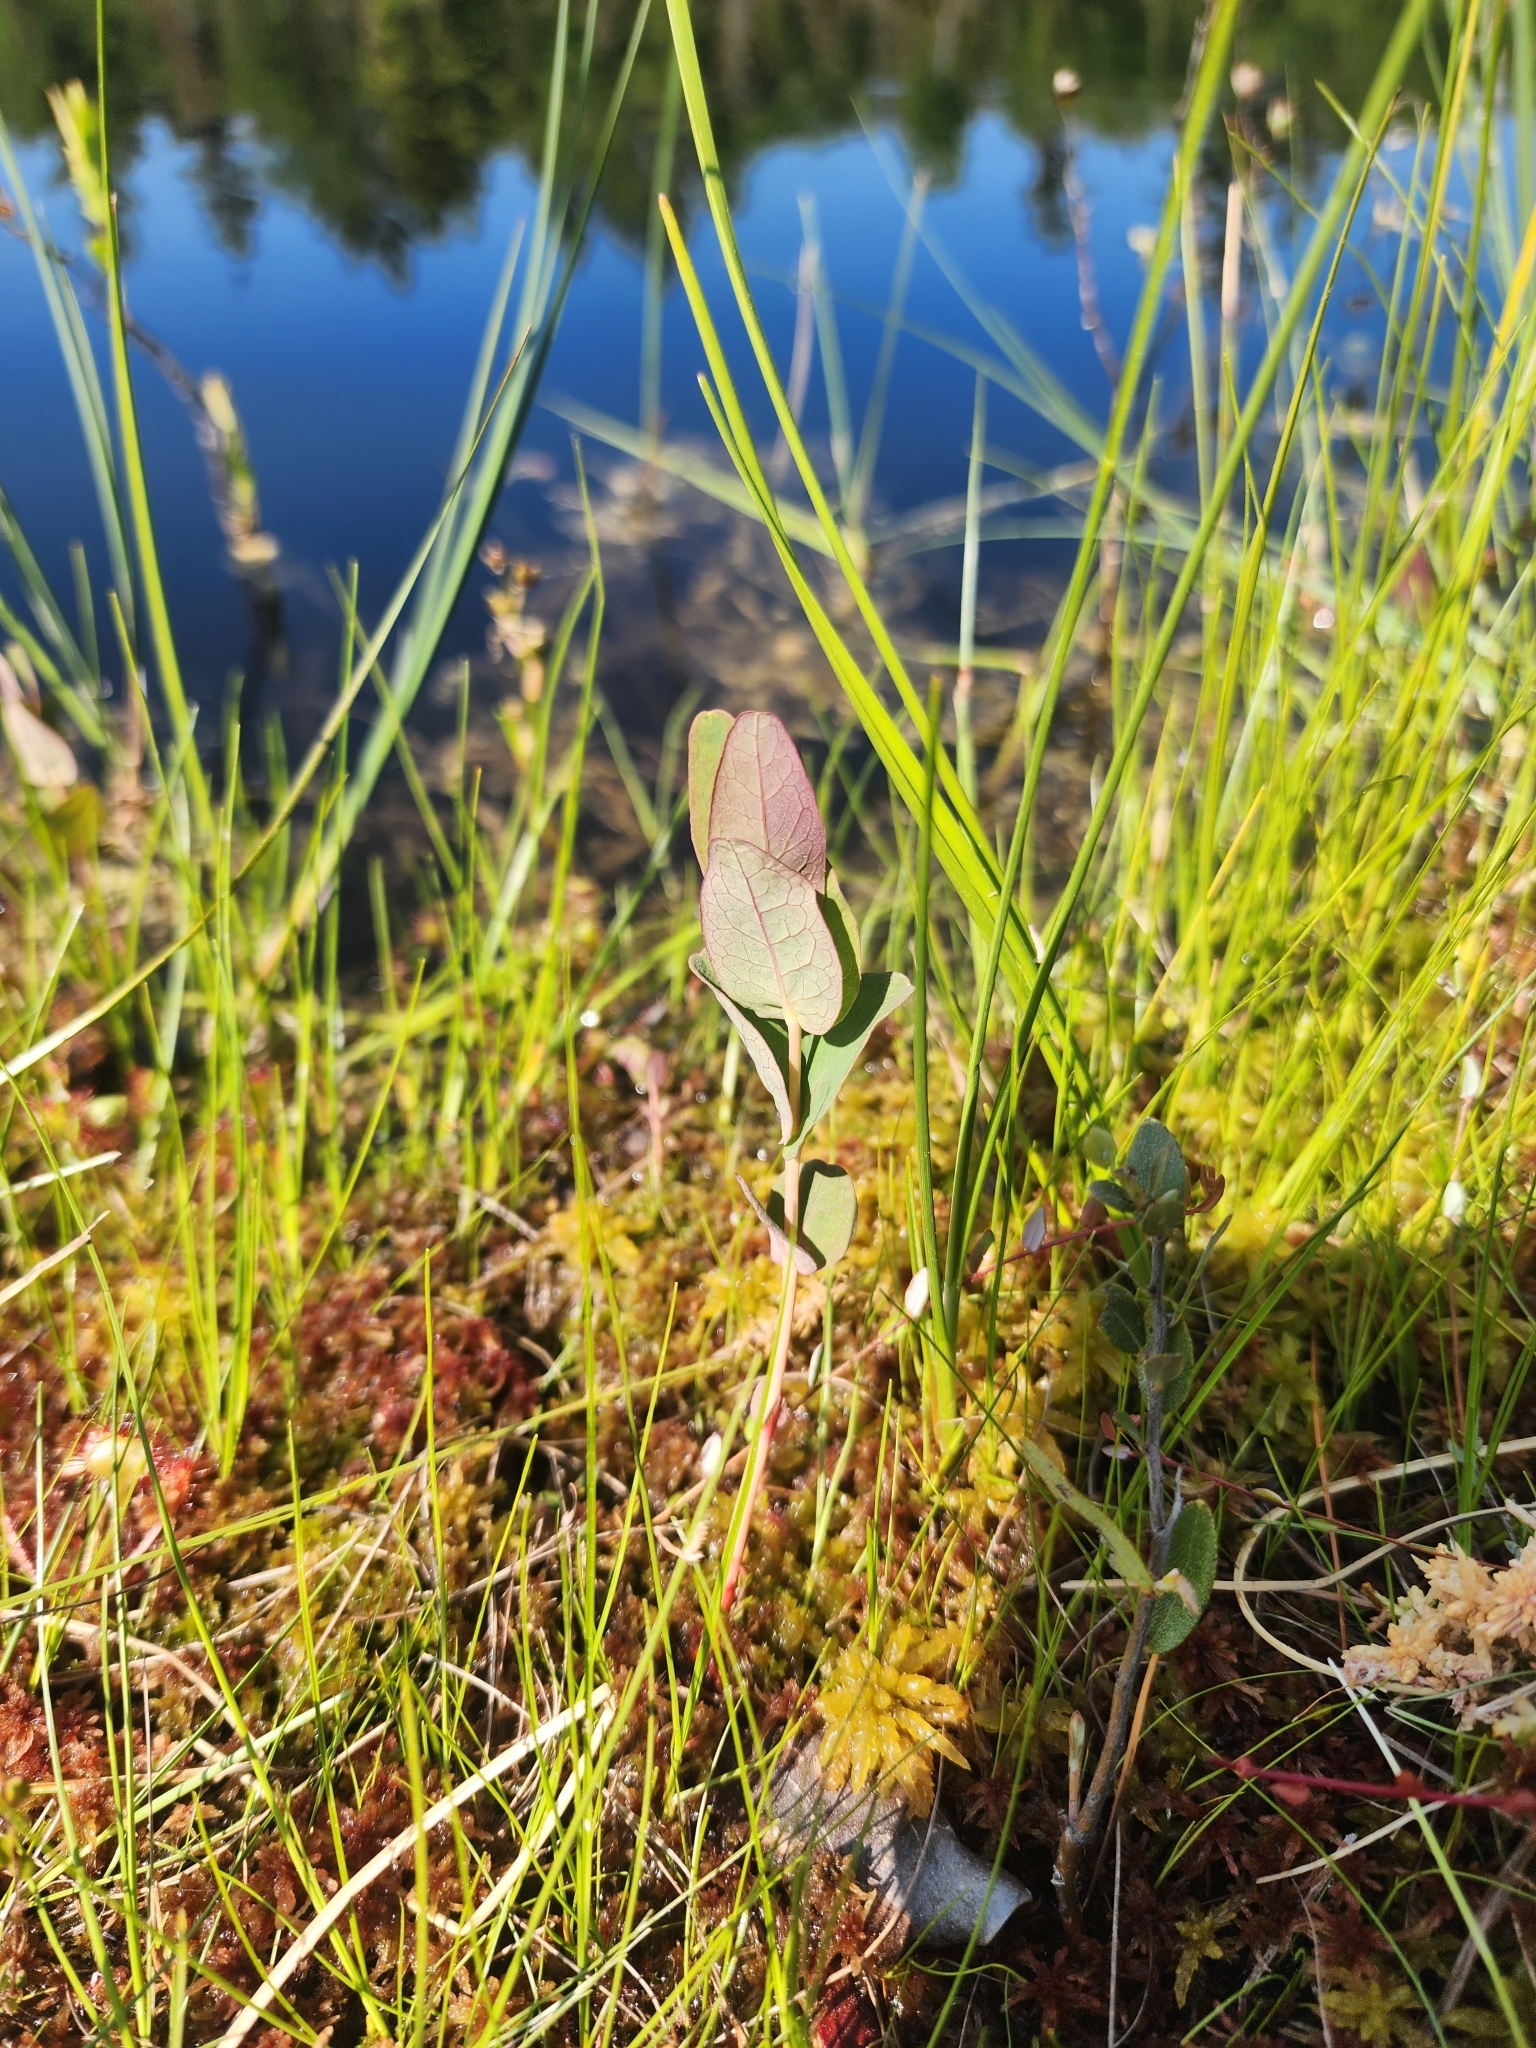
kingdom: Plantae
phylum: Tracheophyta
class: Magnoliopsida
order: Malpighiales
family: Hypericaceae
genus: Triadenum
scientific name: Triadenum fraseri
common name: Fraser's marsh st. johnswort
